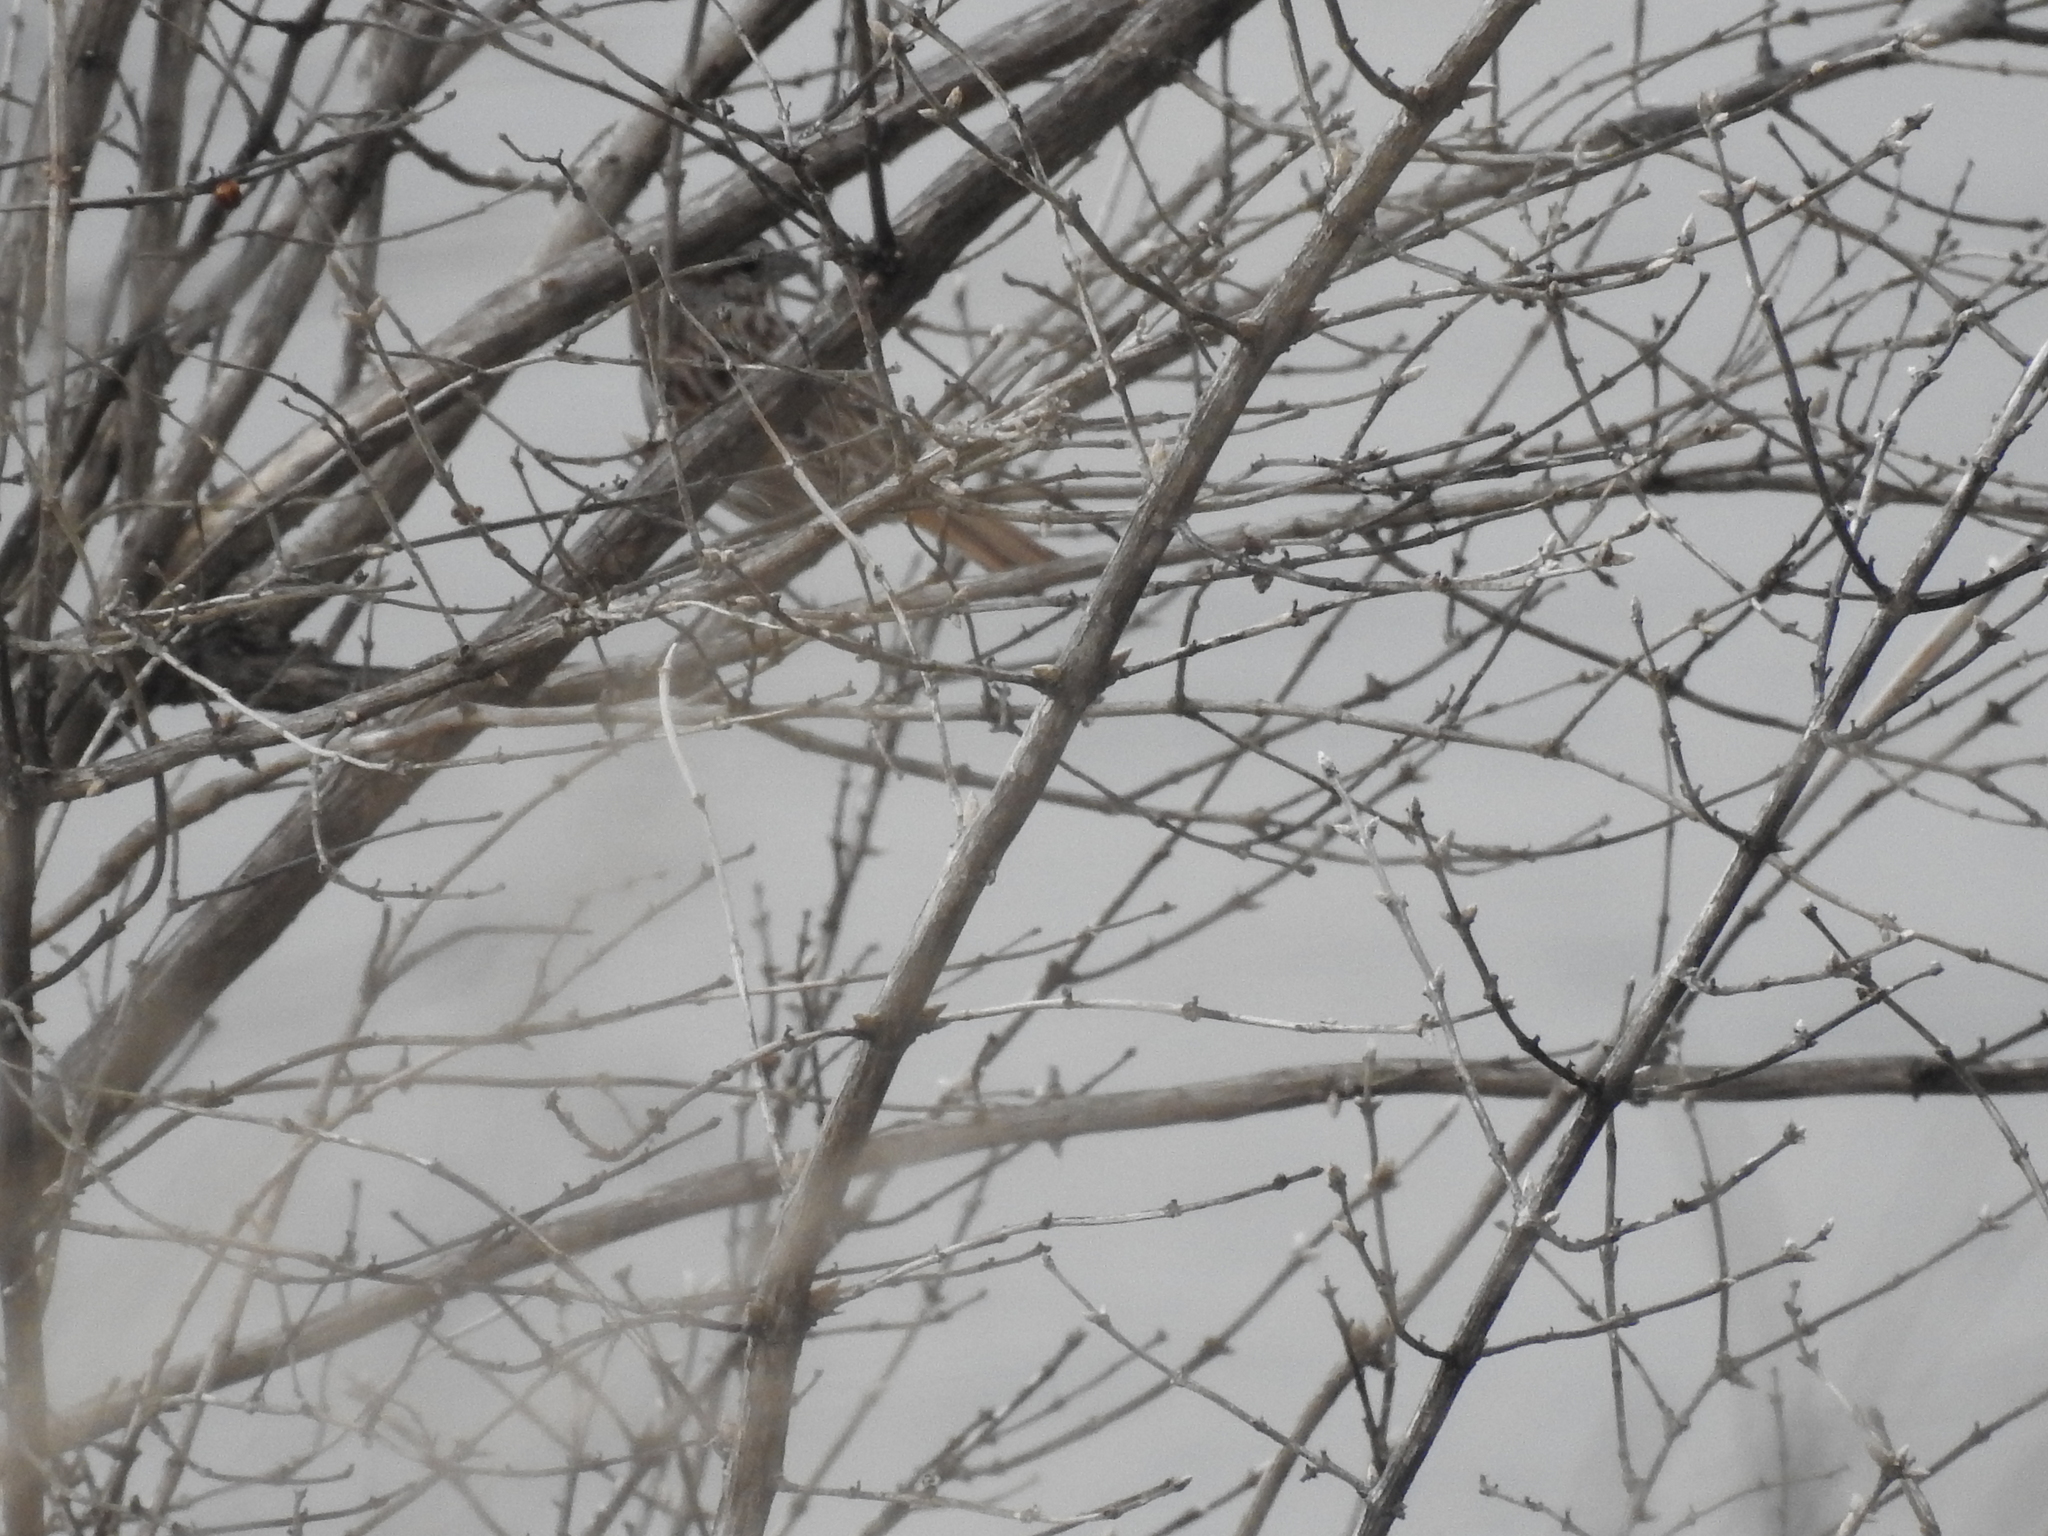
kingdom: Animalia
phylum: Chordata
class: Aves
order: Passeriformes
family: Passerellidae
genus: Melospiza
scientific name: Melospiza melodia
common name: Song sparrow
